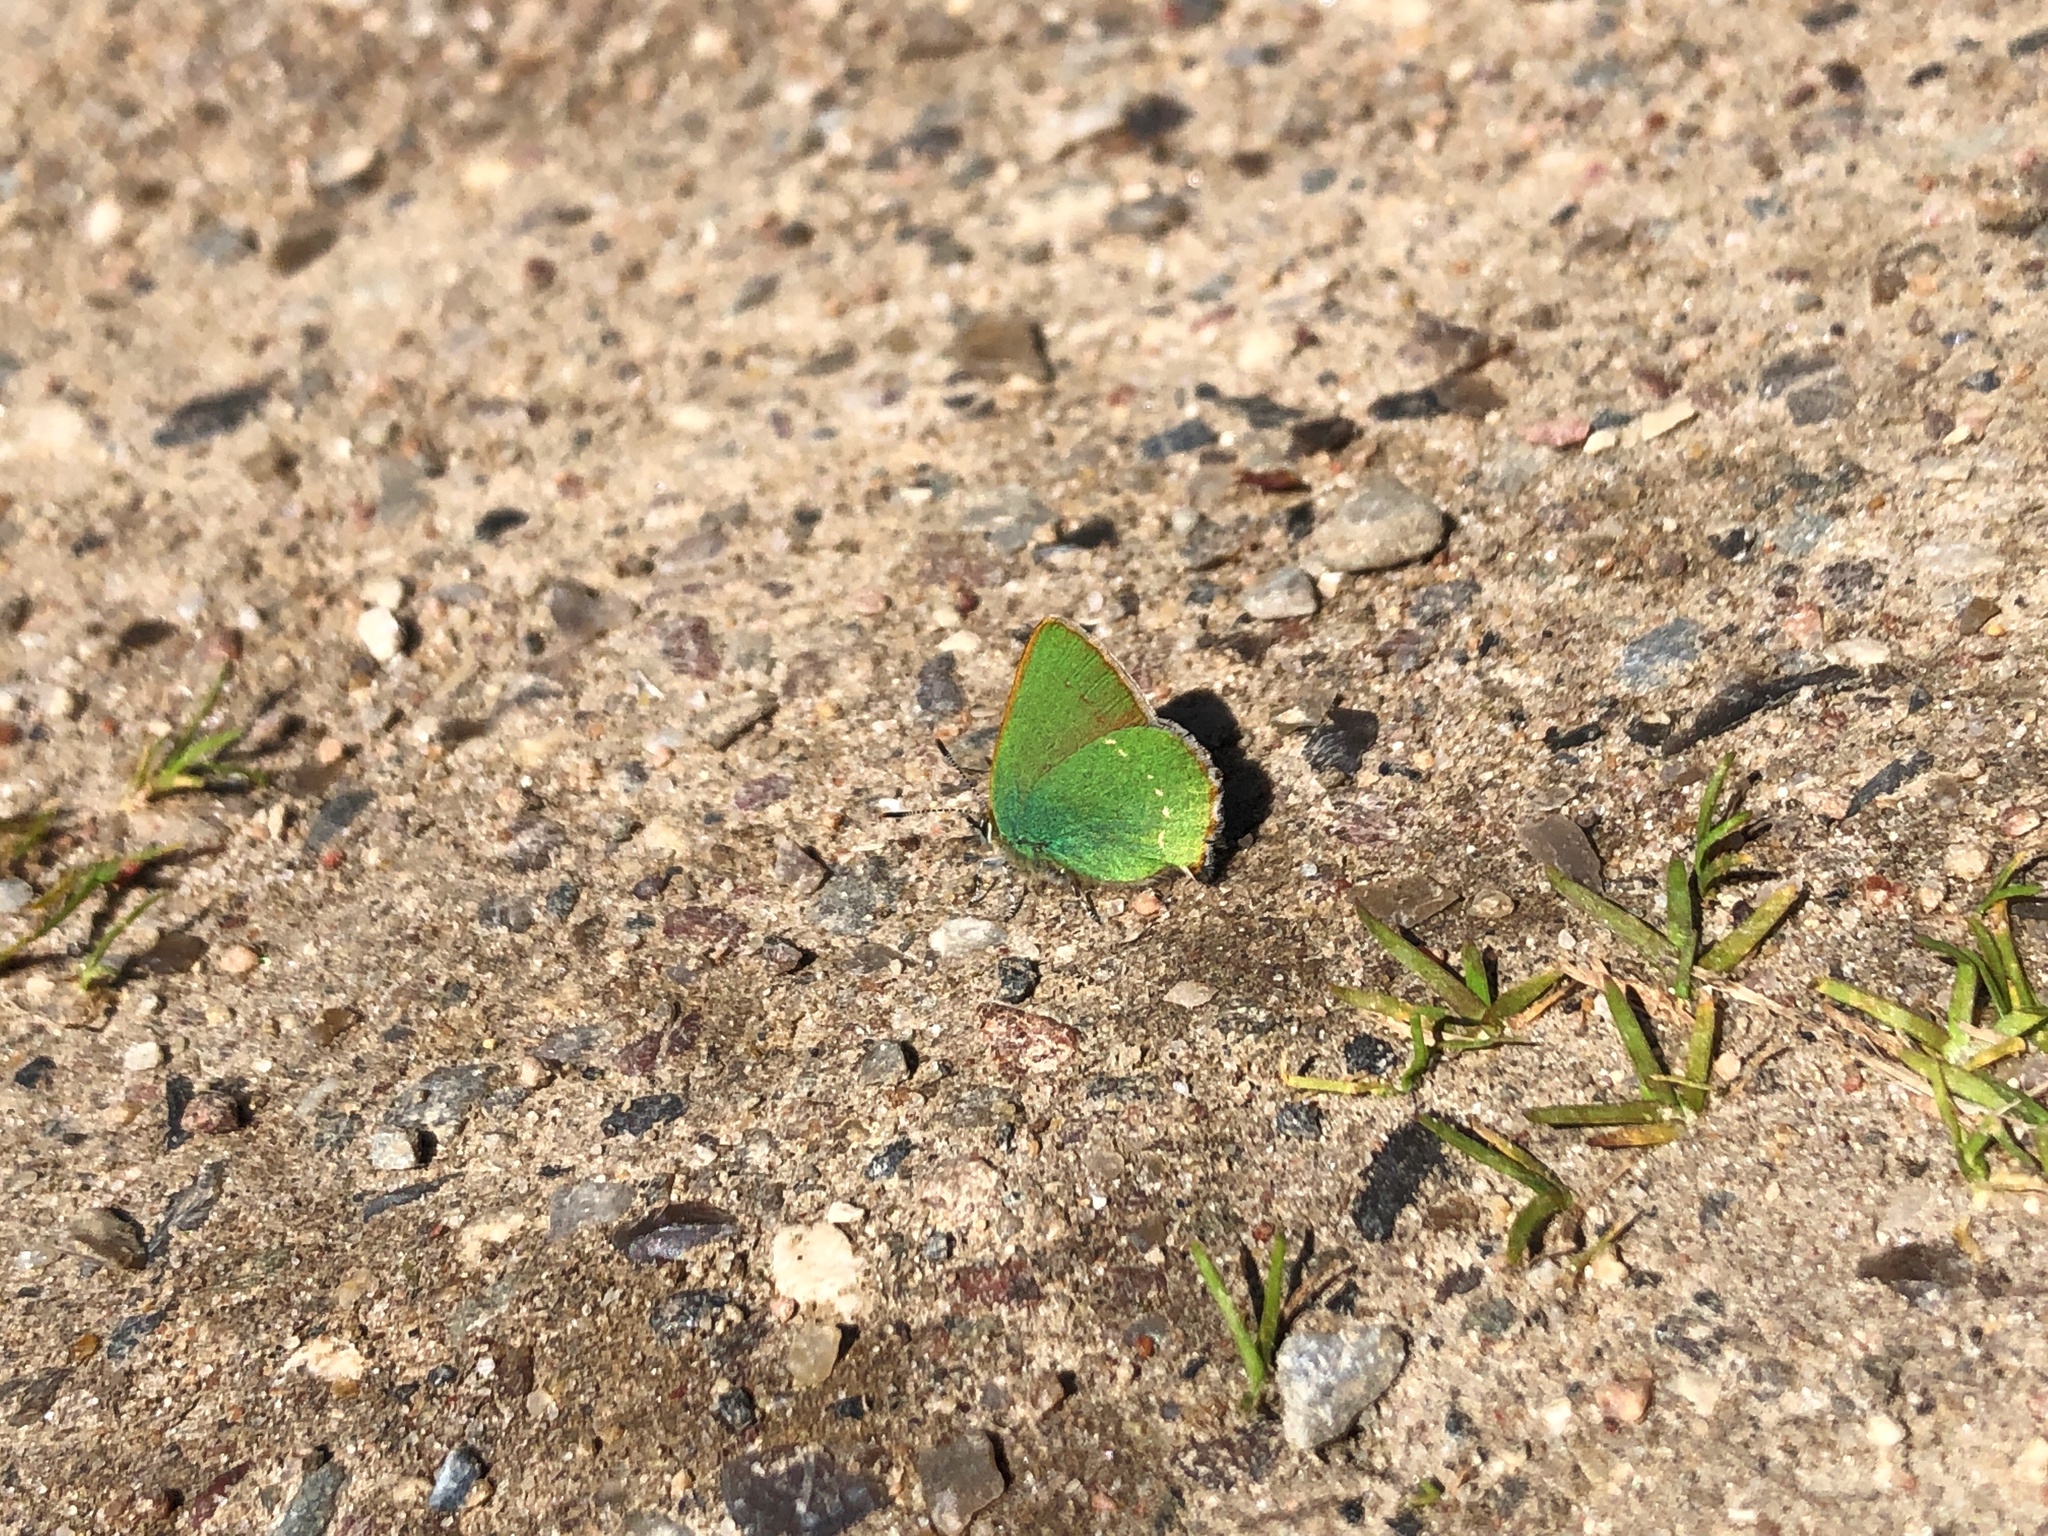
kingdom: Animalia
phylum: Arthropoda
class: Insecta
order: Lepidoptera
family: Lycaenidae
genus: Callophrys
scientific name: Callophrys rubi
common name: Green hairstreak
